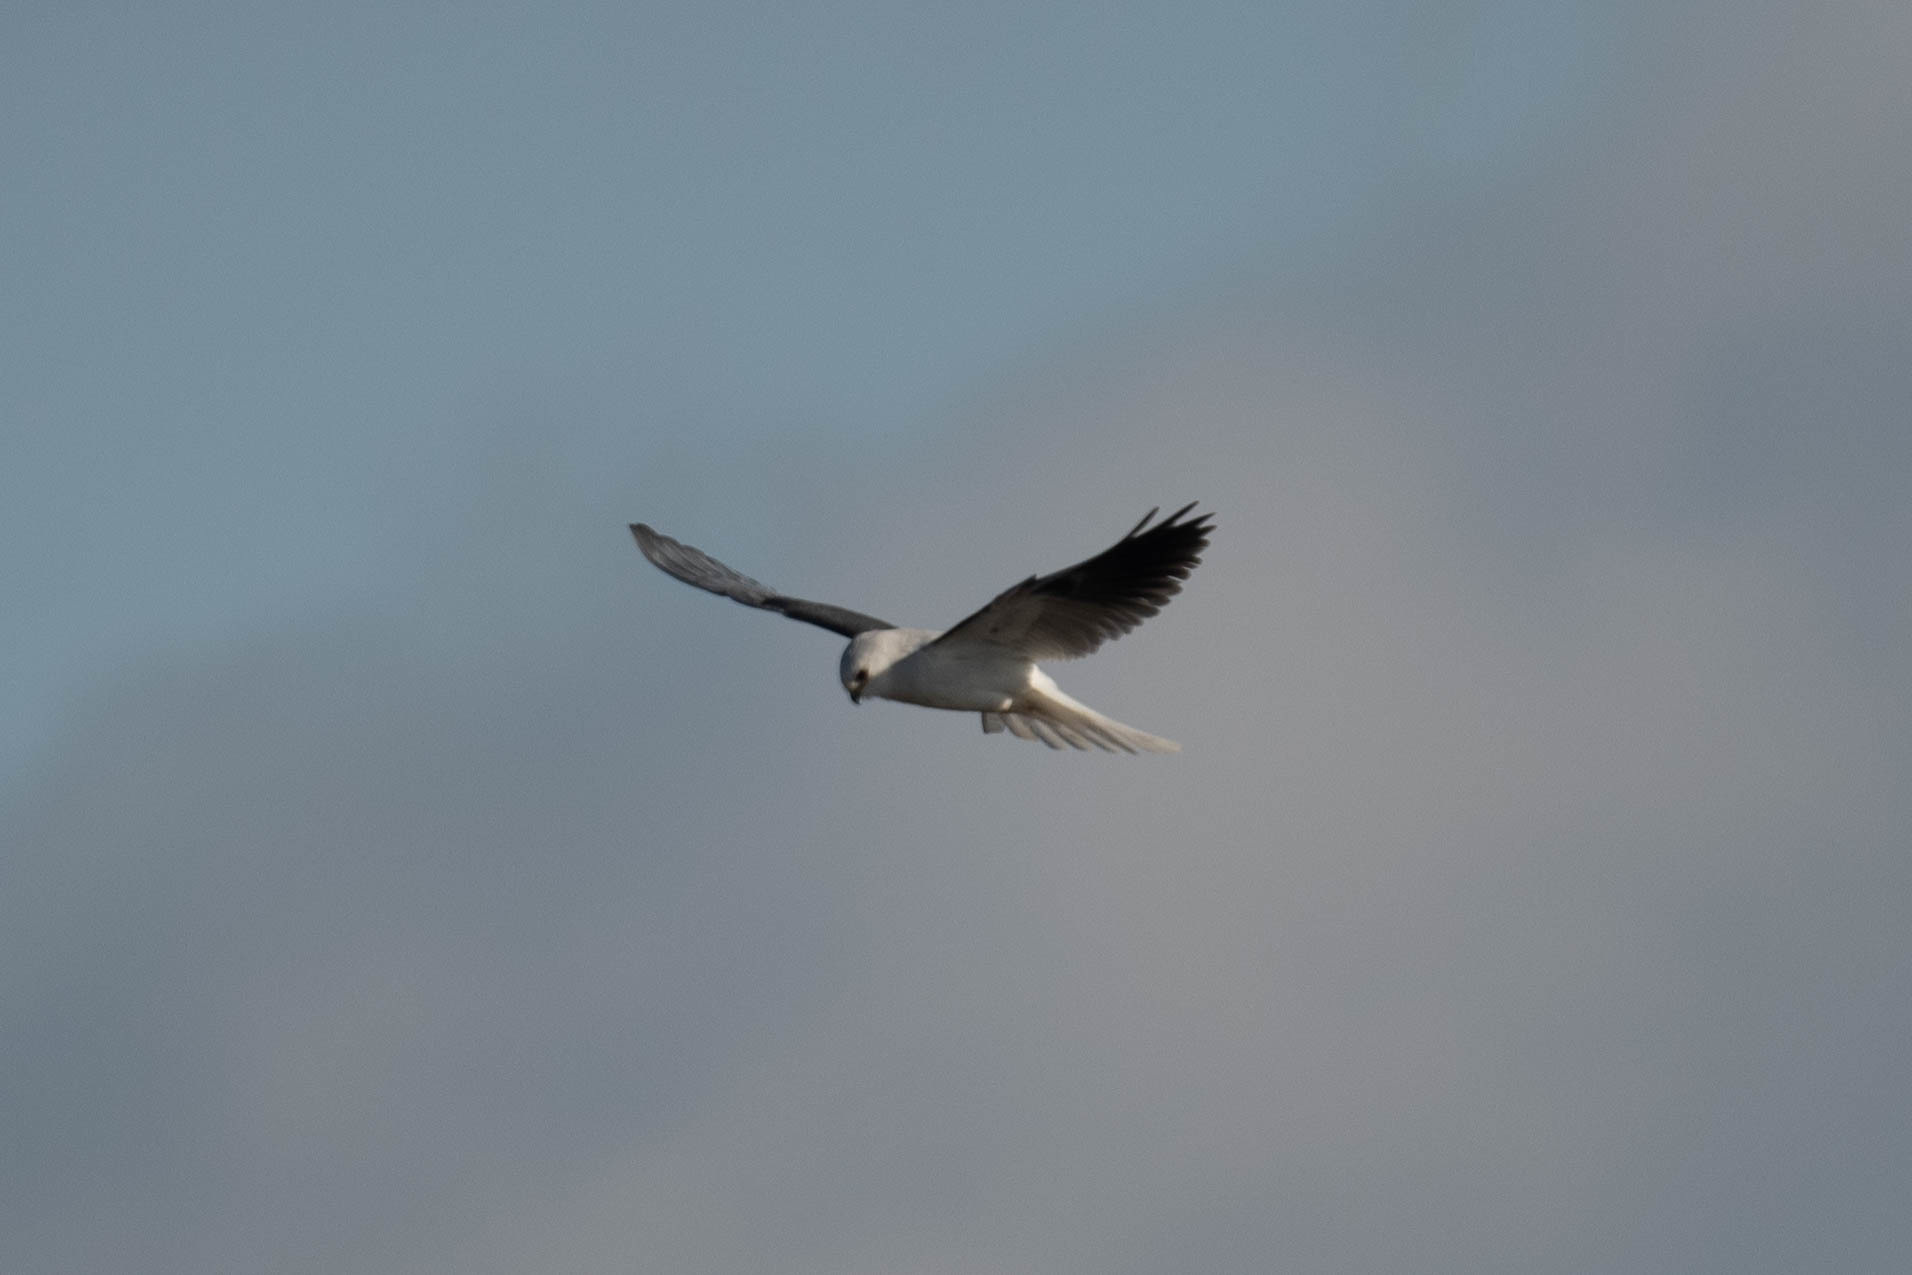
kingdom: Animalia
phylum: Chordata
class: Aves
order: Accipitriformes
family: Accipitridae
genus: Elanus
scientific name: Elanus leucurus
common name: White-tailed kite
